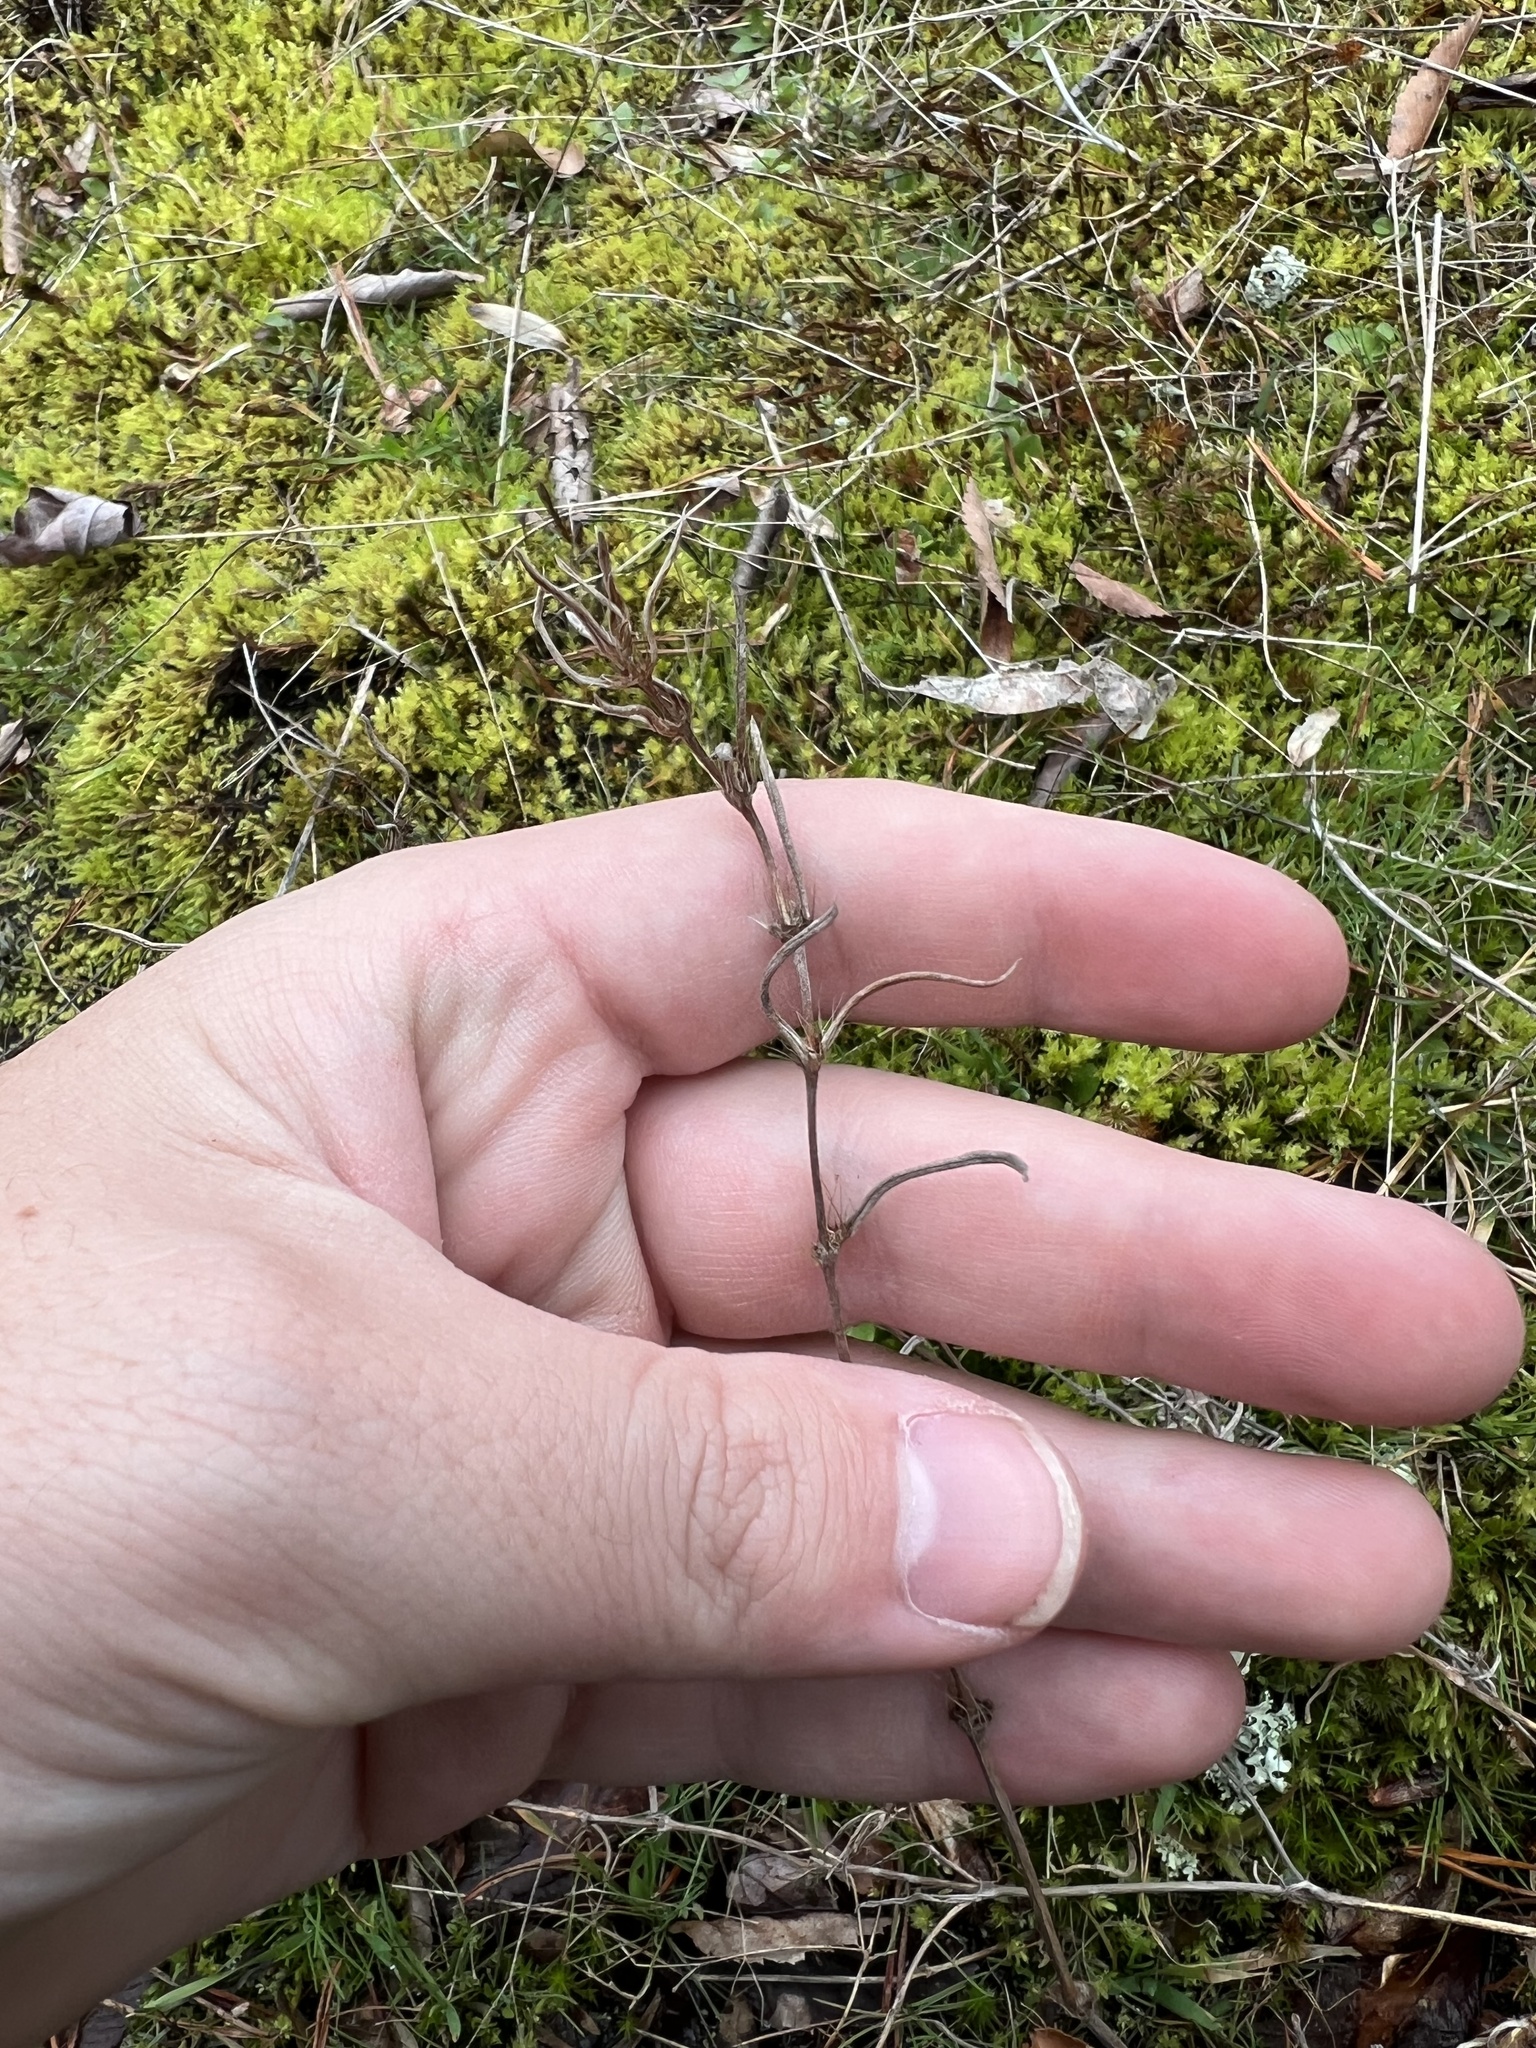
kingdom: Plantae
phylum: Tracheophyta
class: Magnoliopsida
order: Gentianales
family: Rubiaceae
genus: Hexasepalum
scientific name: Hexasepalum teres
